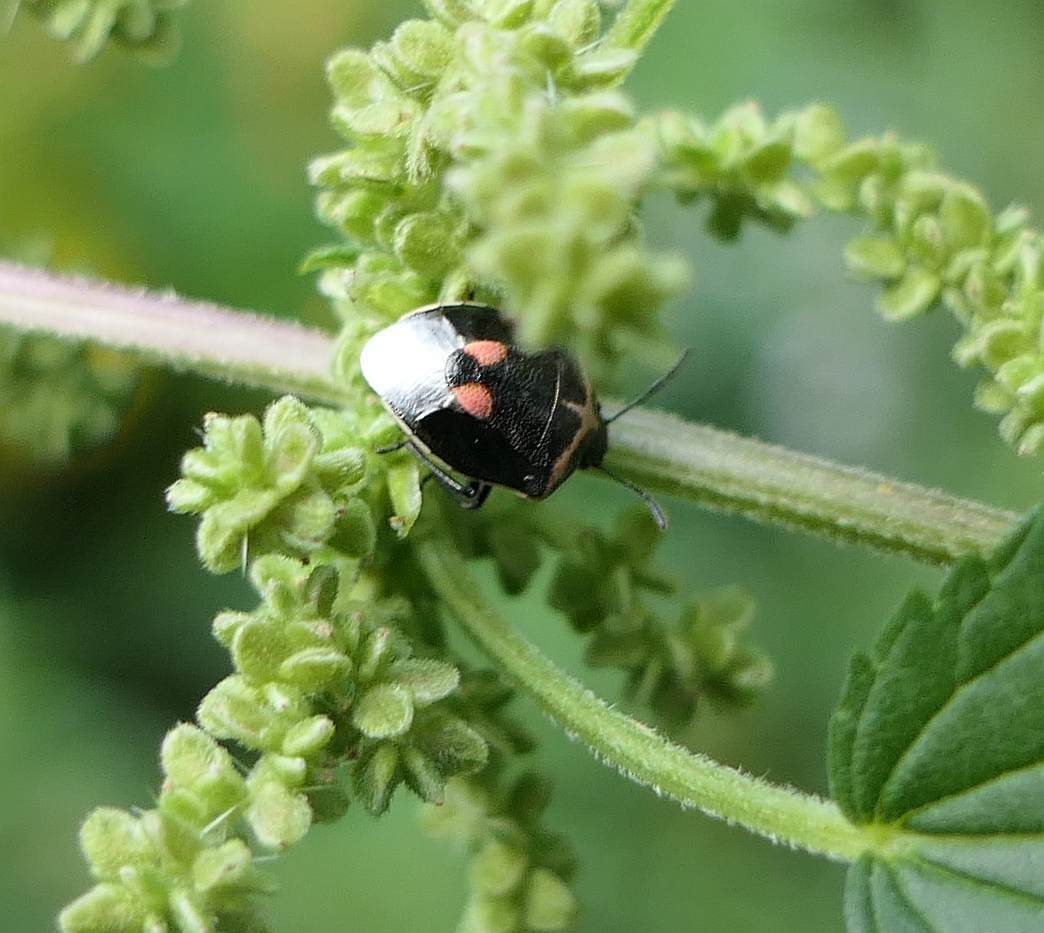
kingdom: Animalia
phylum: Arthropoda
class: Insecta
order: Hemiptera
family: Pentatomidae
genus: Cosmopepla
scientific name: Cosmopepla lintneriana
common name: Twice-stabbed stink bug
